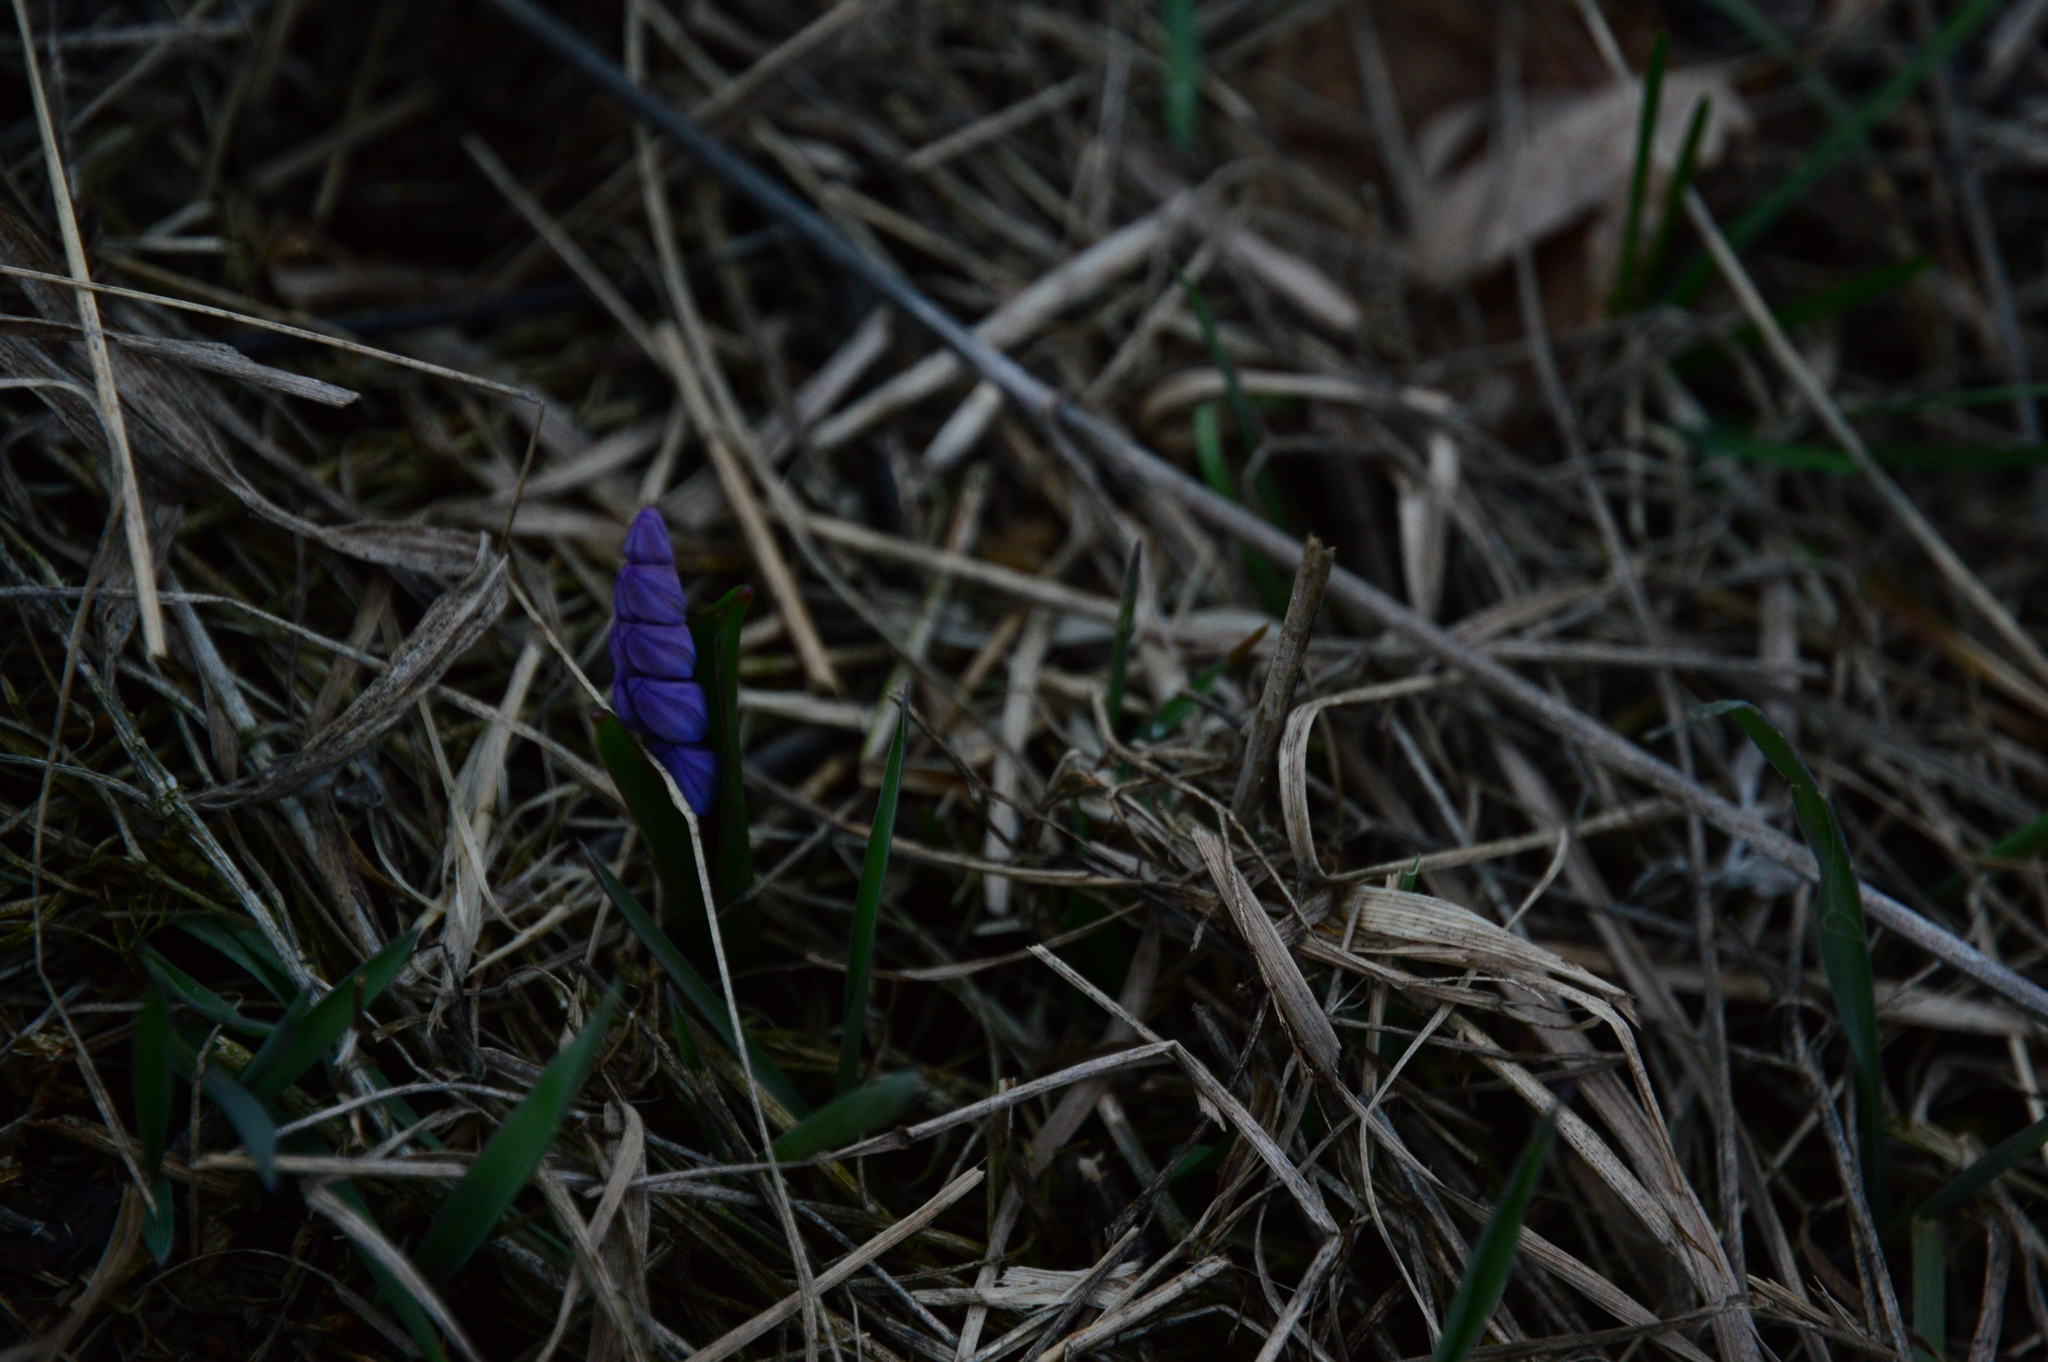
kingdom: Plantae
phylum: Tracheophyta
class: Liliopsida
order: Asparagales
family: Asparagaceae
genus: Scilla
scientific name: Scilla bifolia
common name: Alpine squill
